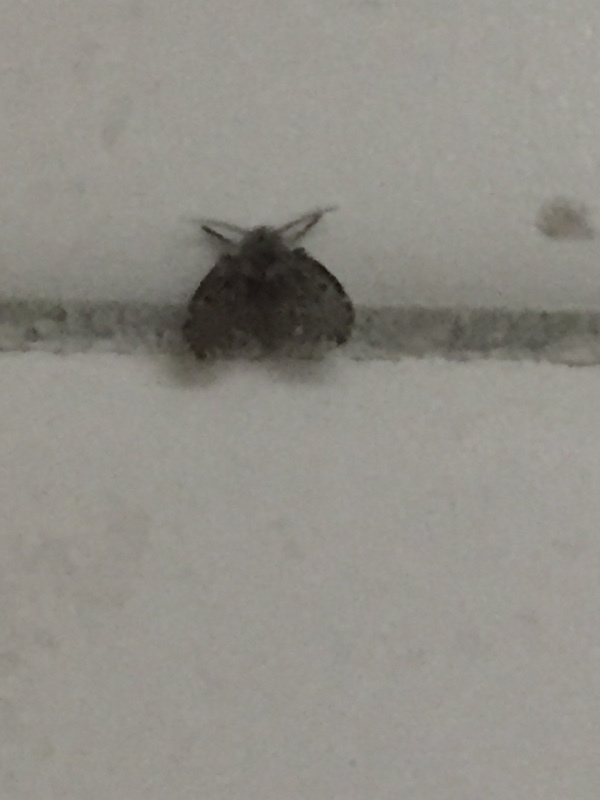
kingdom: Animalia
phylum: Arthropoda
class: Insecta
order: Diptera
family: Psychodidae
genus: Clogmia
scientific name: Clogmia albipunctatus
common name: White-spotted moth fly
